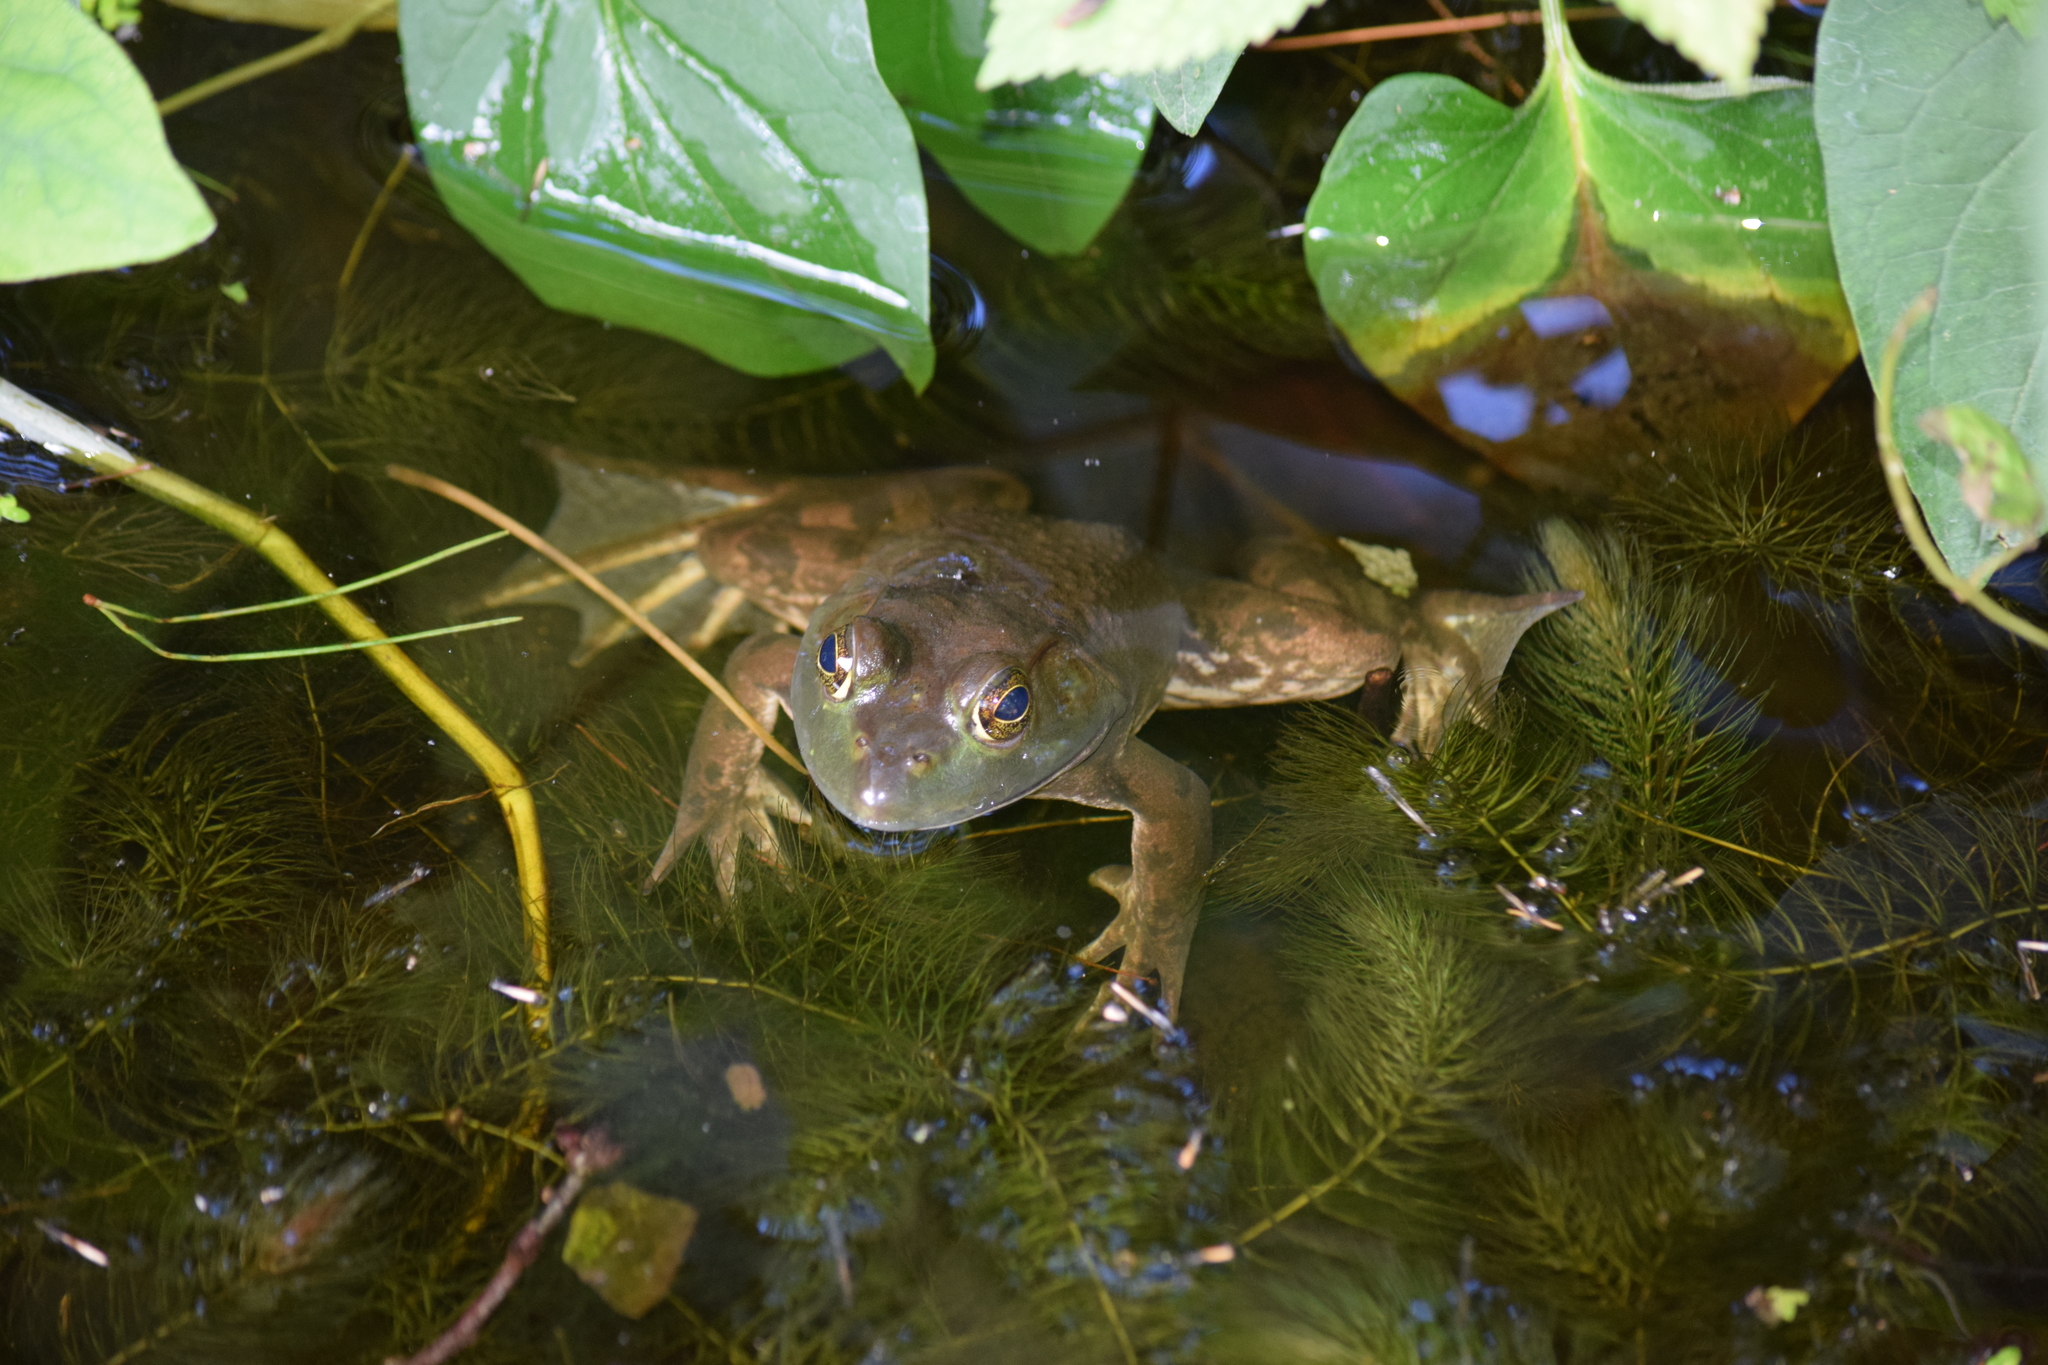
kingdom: Animalia
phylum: Chordata
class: Amphibia
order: Anura
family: Ranidae
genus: Lithobates
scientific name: Lithobates catesbeianus
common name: American bullfrog
